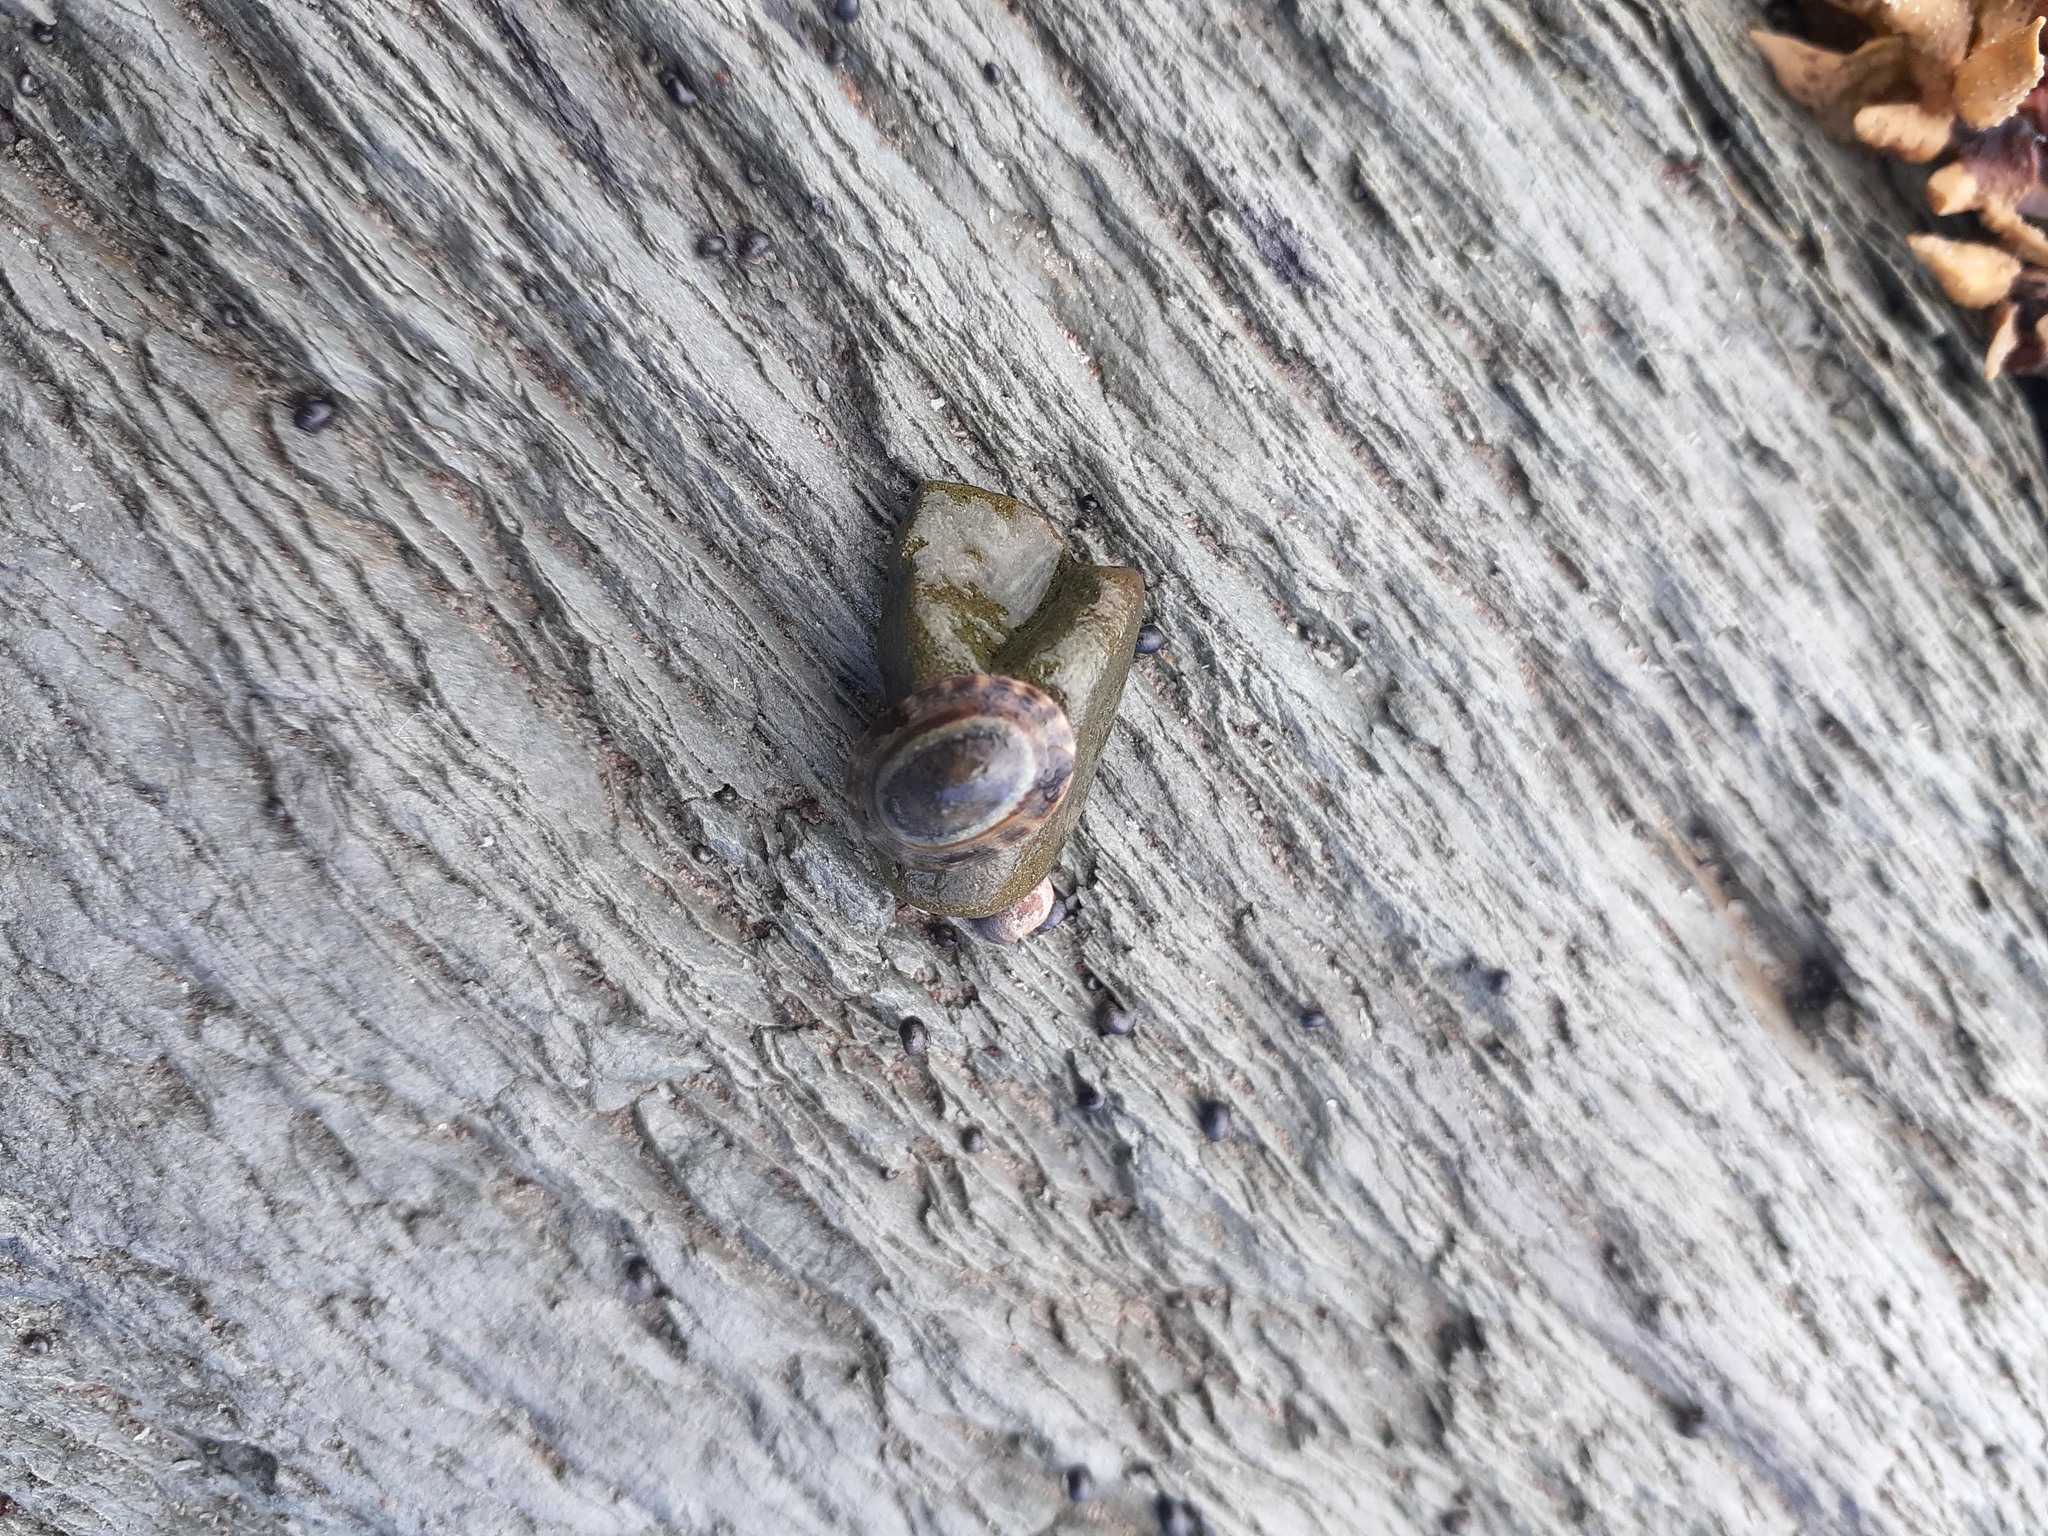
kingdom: Animalia
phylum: Mollusca
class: Gastropoda
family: Lottiidae
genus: Testudinalia
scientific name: Testudinalia testudinalis
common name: Common tortoiseshell limpet
